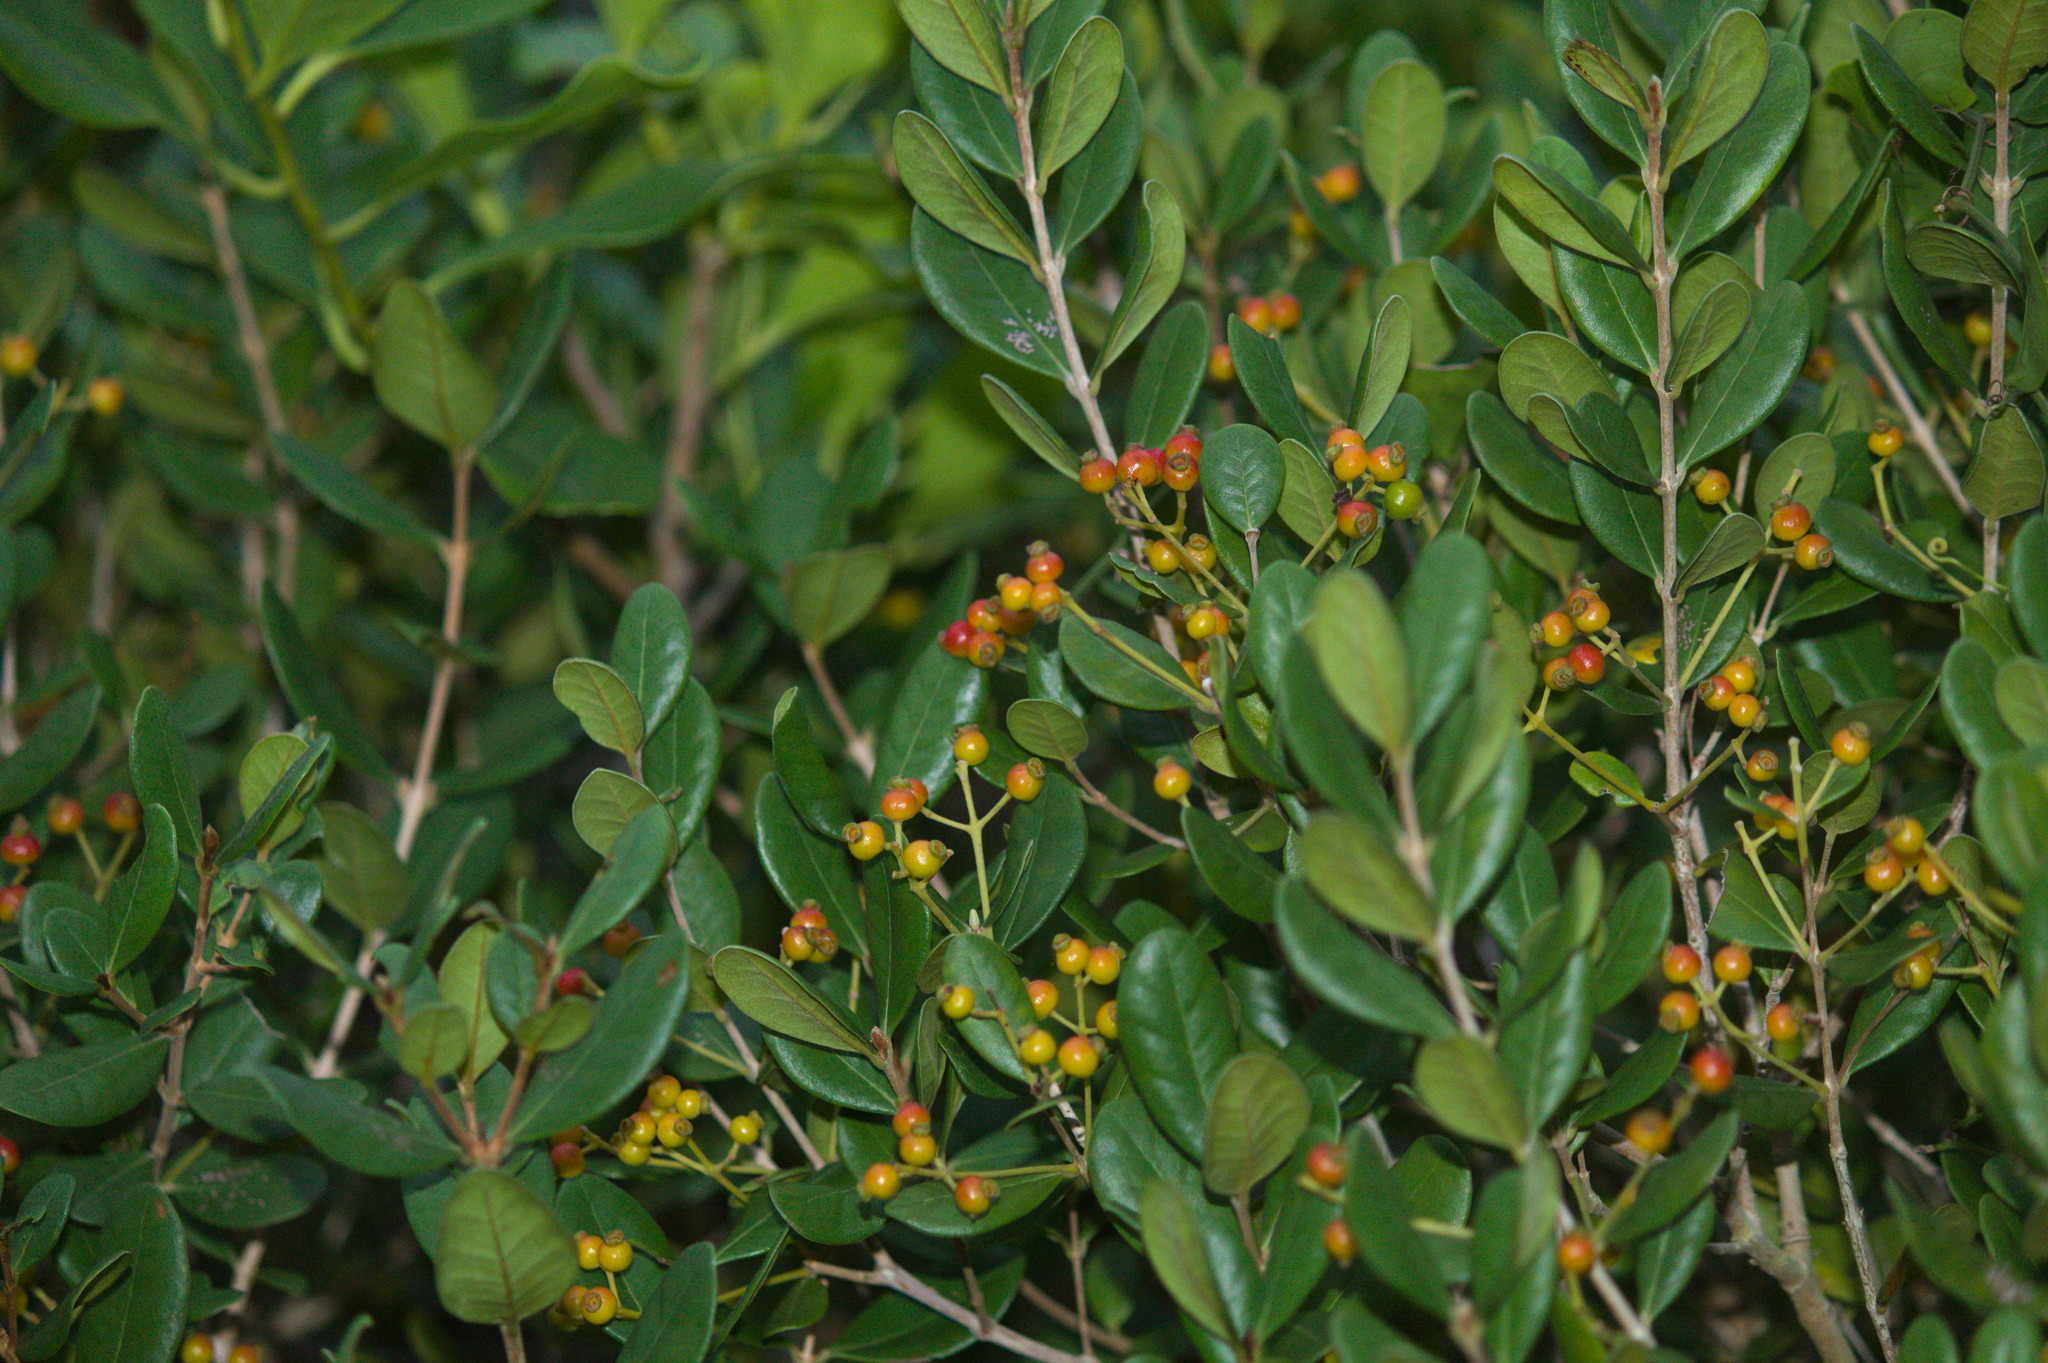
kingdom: Plantae
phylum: Tracheophyta
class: Magnoliopsida
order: Myrtales
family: Myrtaceae
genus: Myrcia
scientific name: Myrcia palustris
